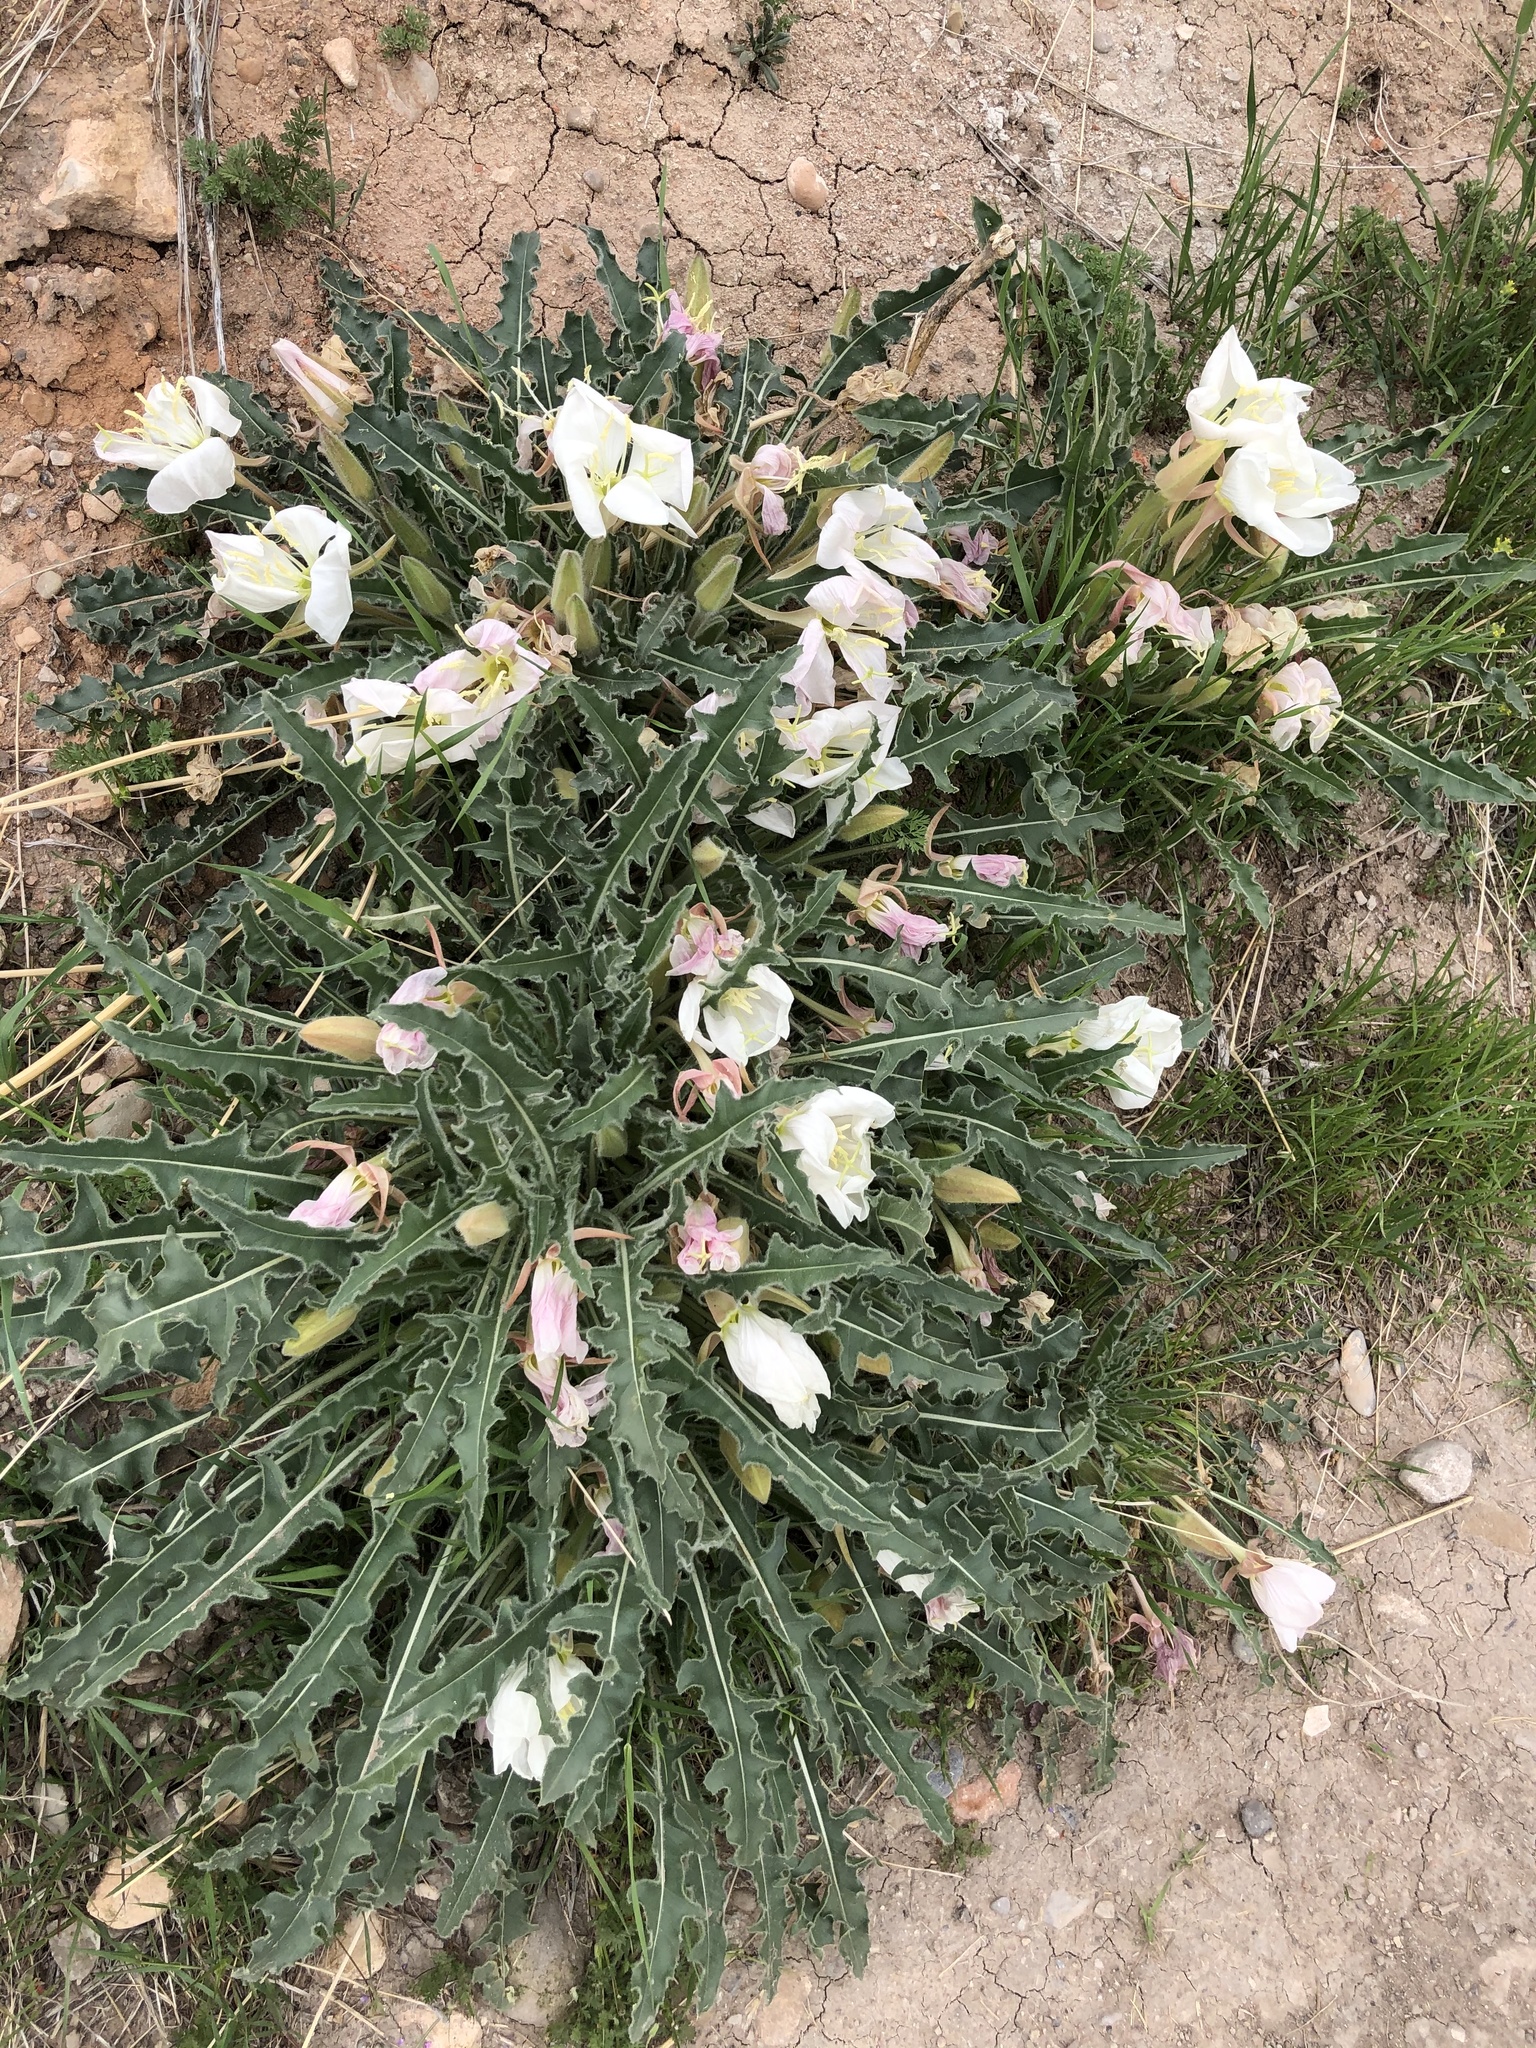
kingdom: Plantae
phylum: Tracheophyta
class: Magnoliopsida
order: Myrtales
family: Onagraceae
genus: Oenothera
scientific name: Oenothera cespitosa
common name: Tufted evening-primrose
